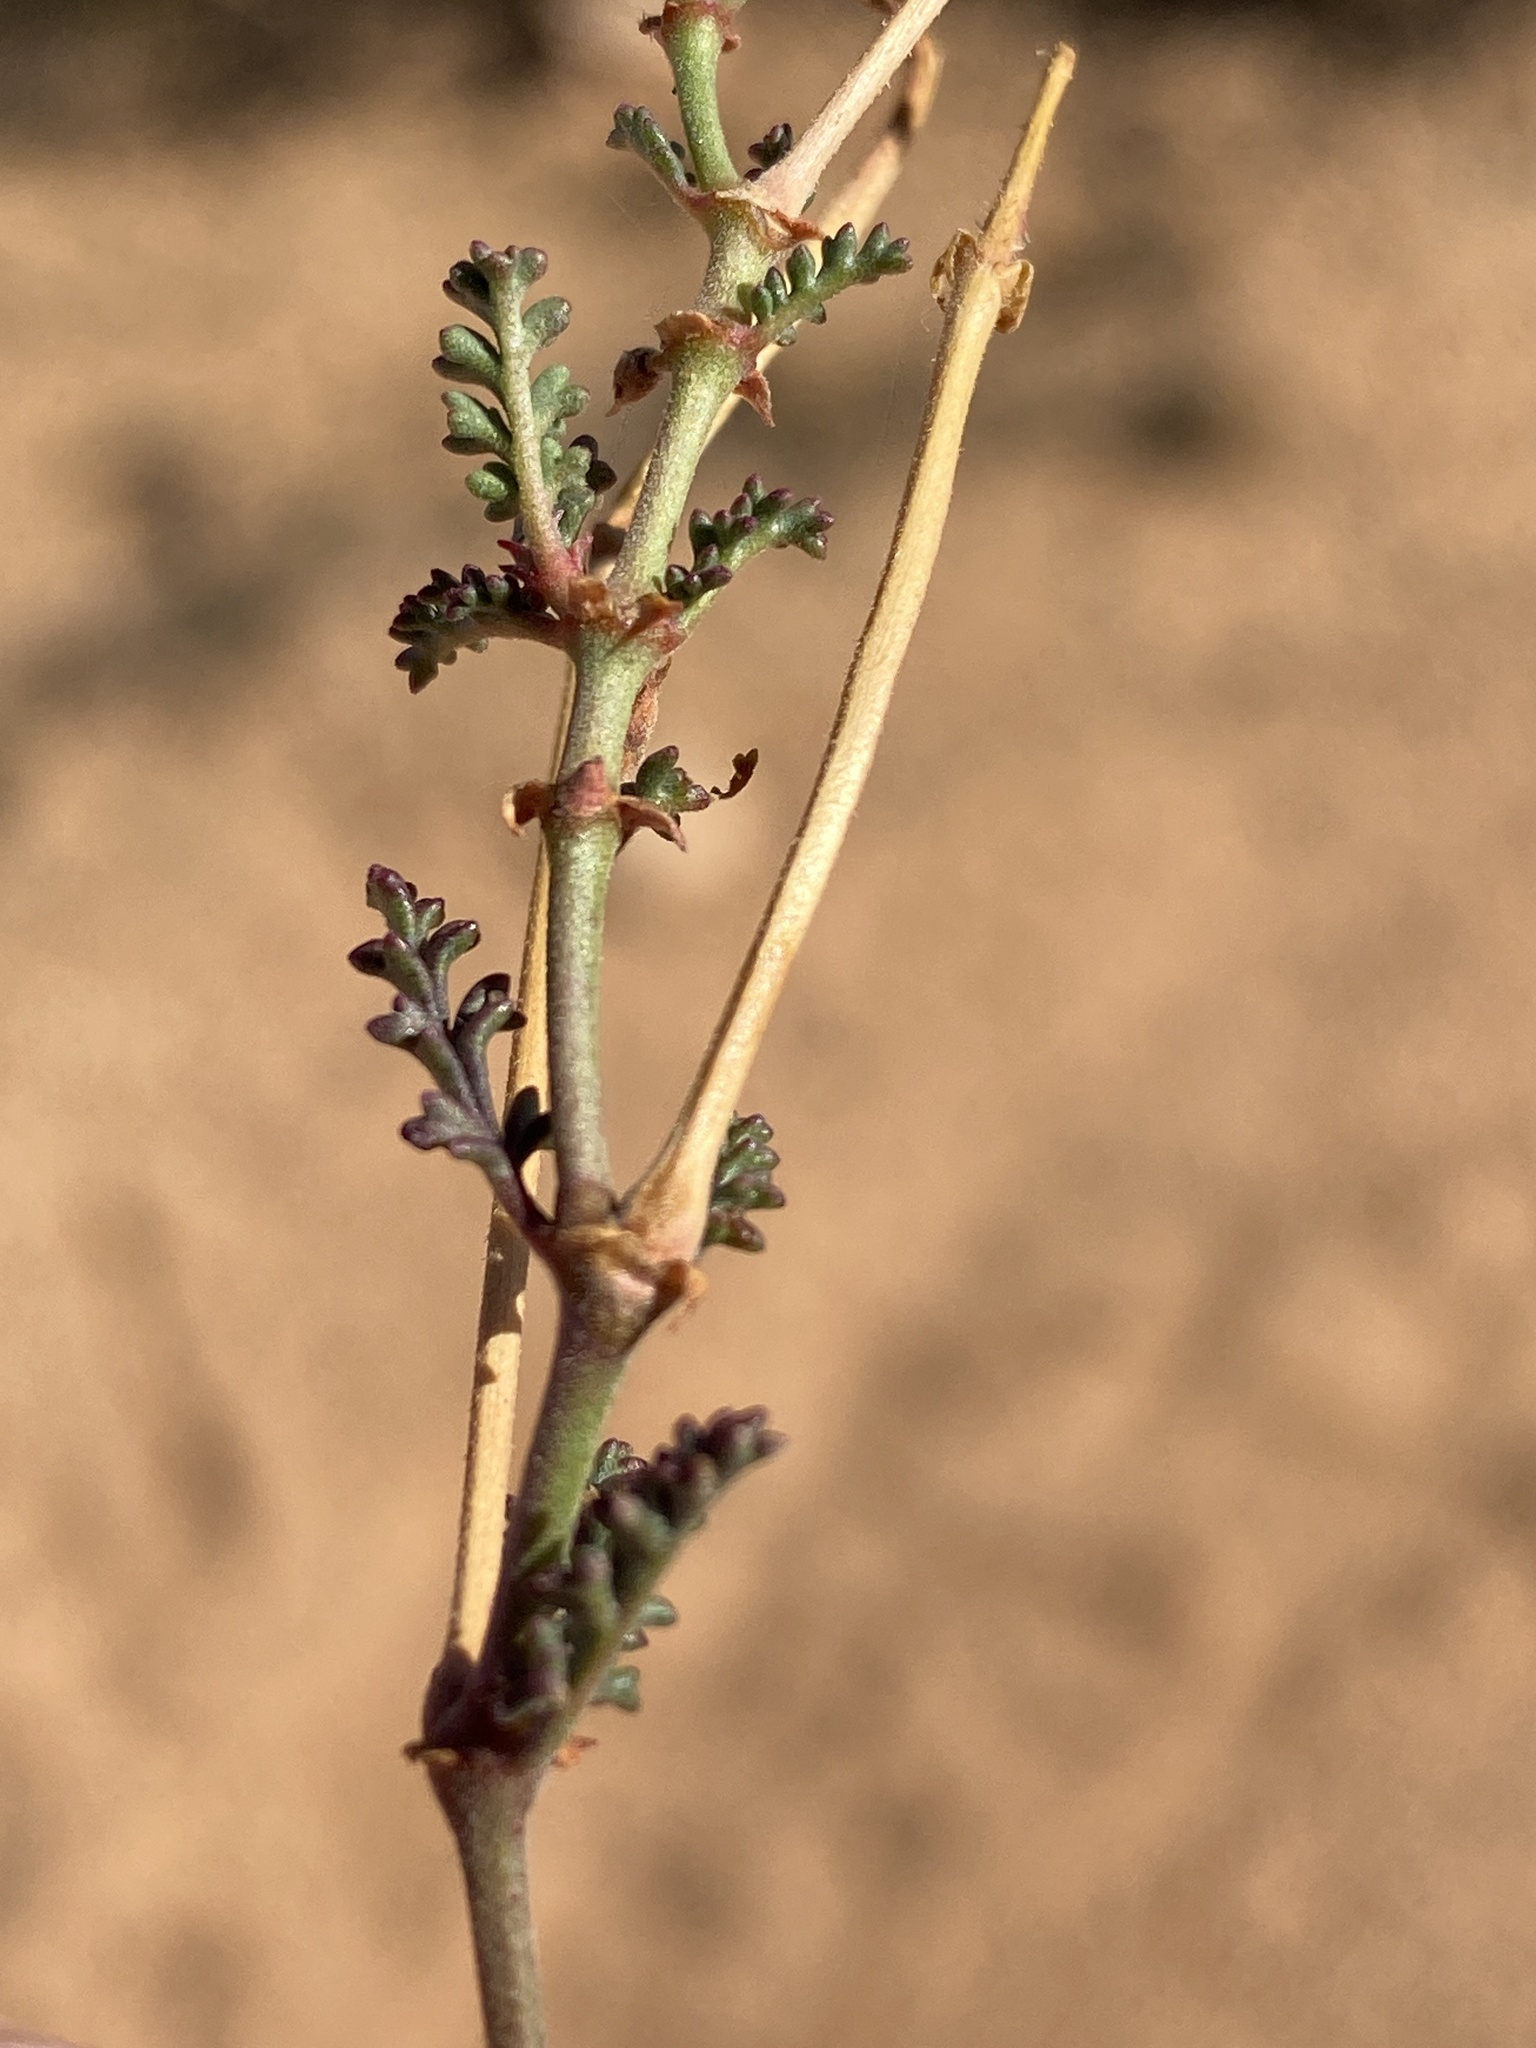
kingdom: Plantae
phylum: Tracheophyta
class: Magnoliopsida
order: Geraniales
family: Geraniaceae
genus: Pelargonium
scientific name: Pelargonium caucalifolium
